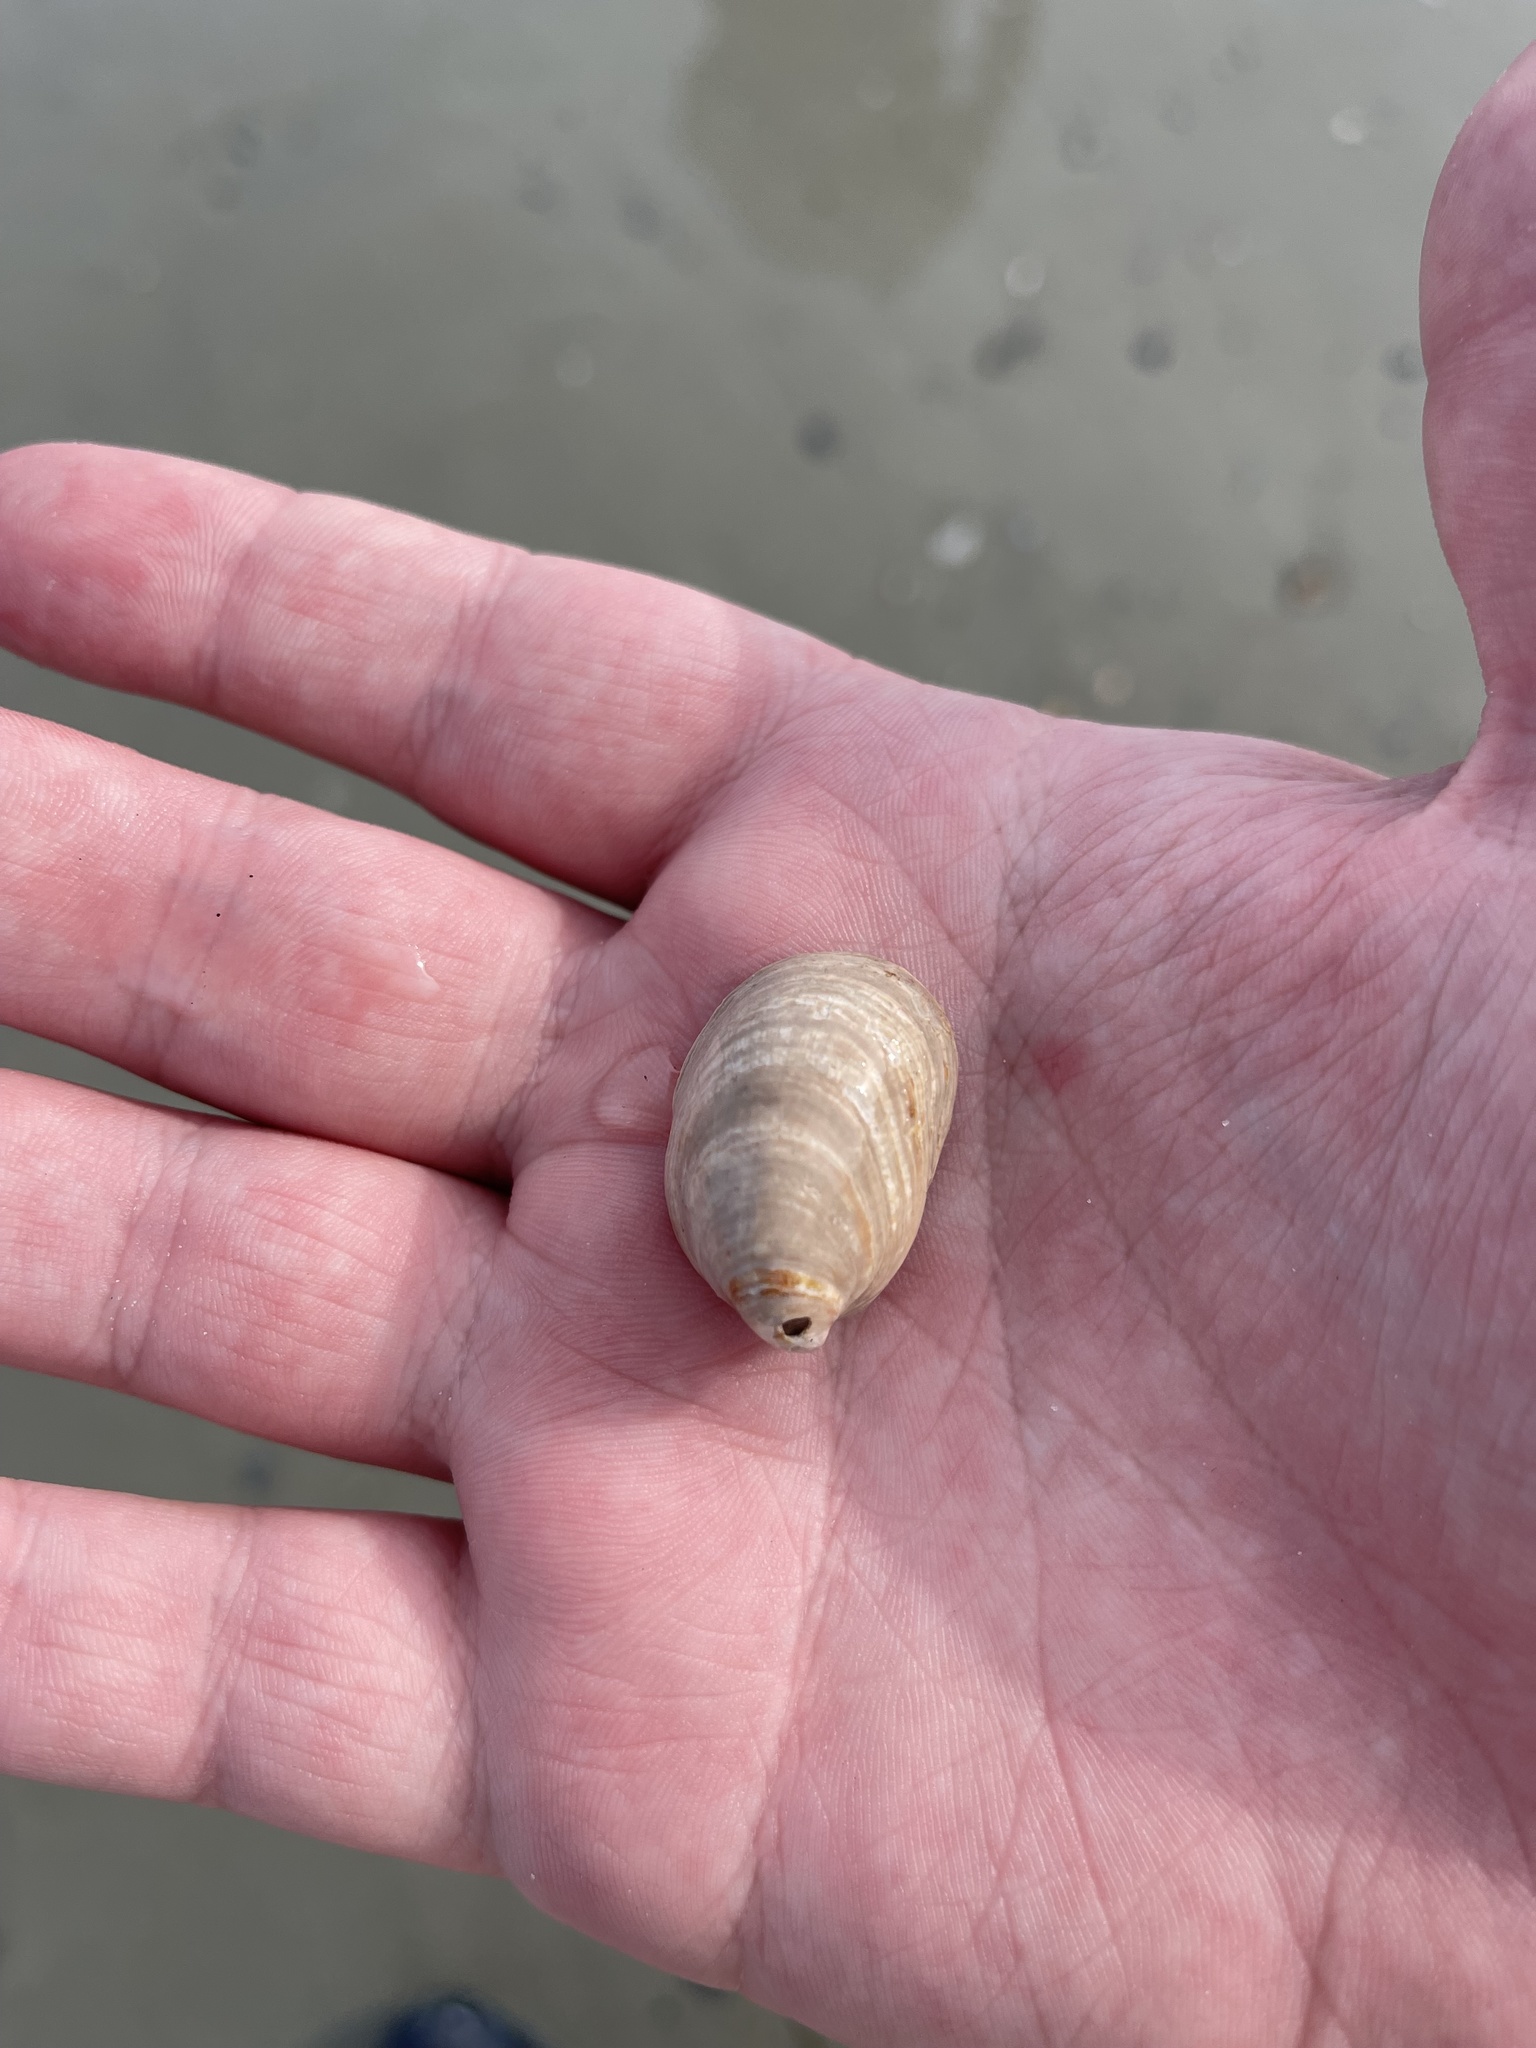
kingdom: Animalia
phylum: Mollusca
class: Gastropoda
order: Littorinimorpha
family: Calyptraeidae
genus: Crepidula
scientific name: Crepidula fornicata
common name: Slipper limpet
